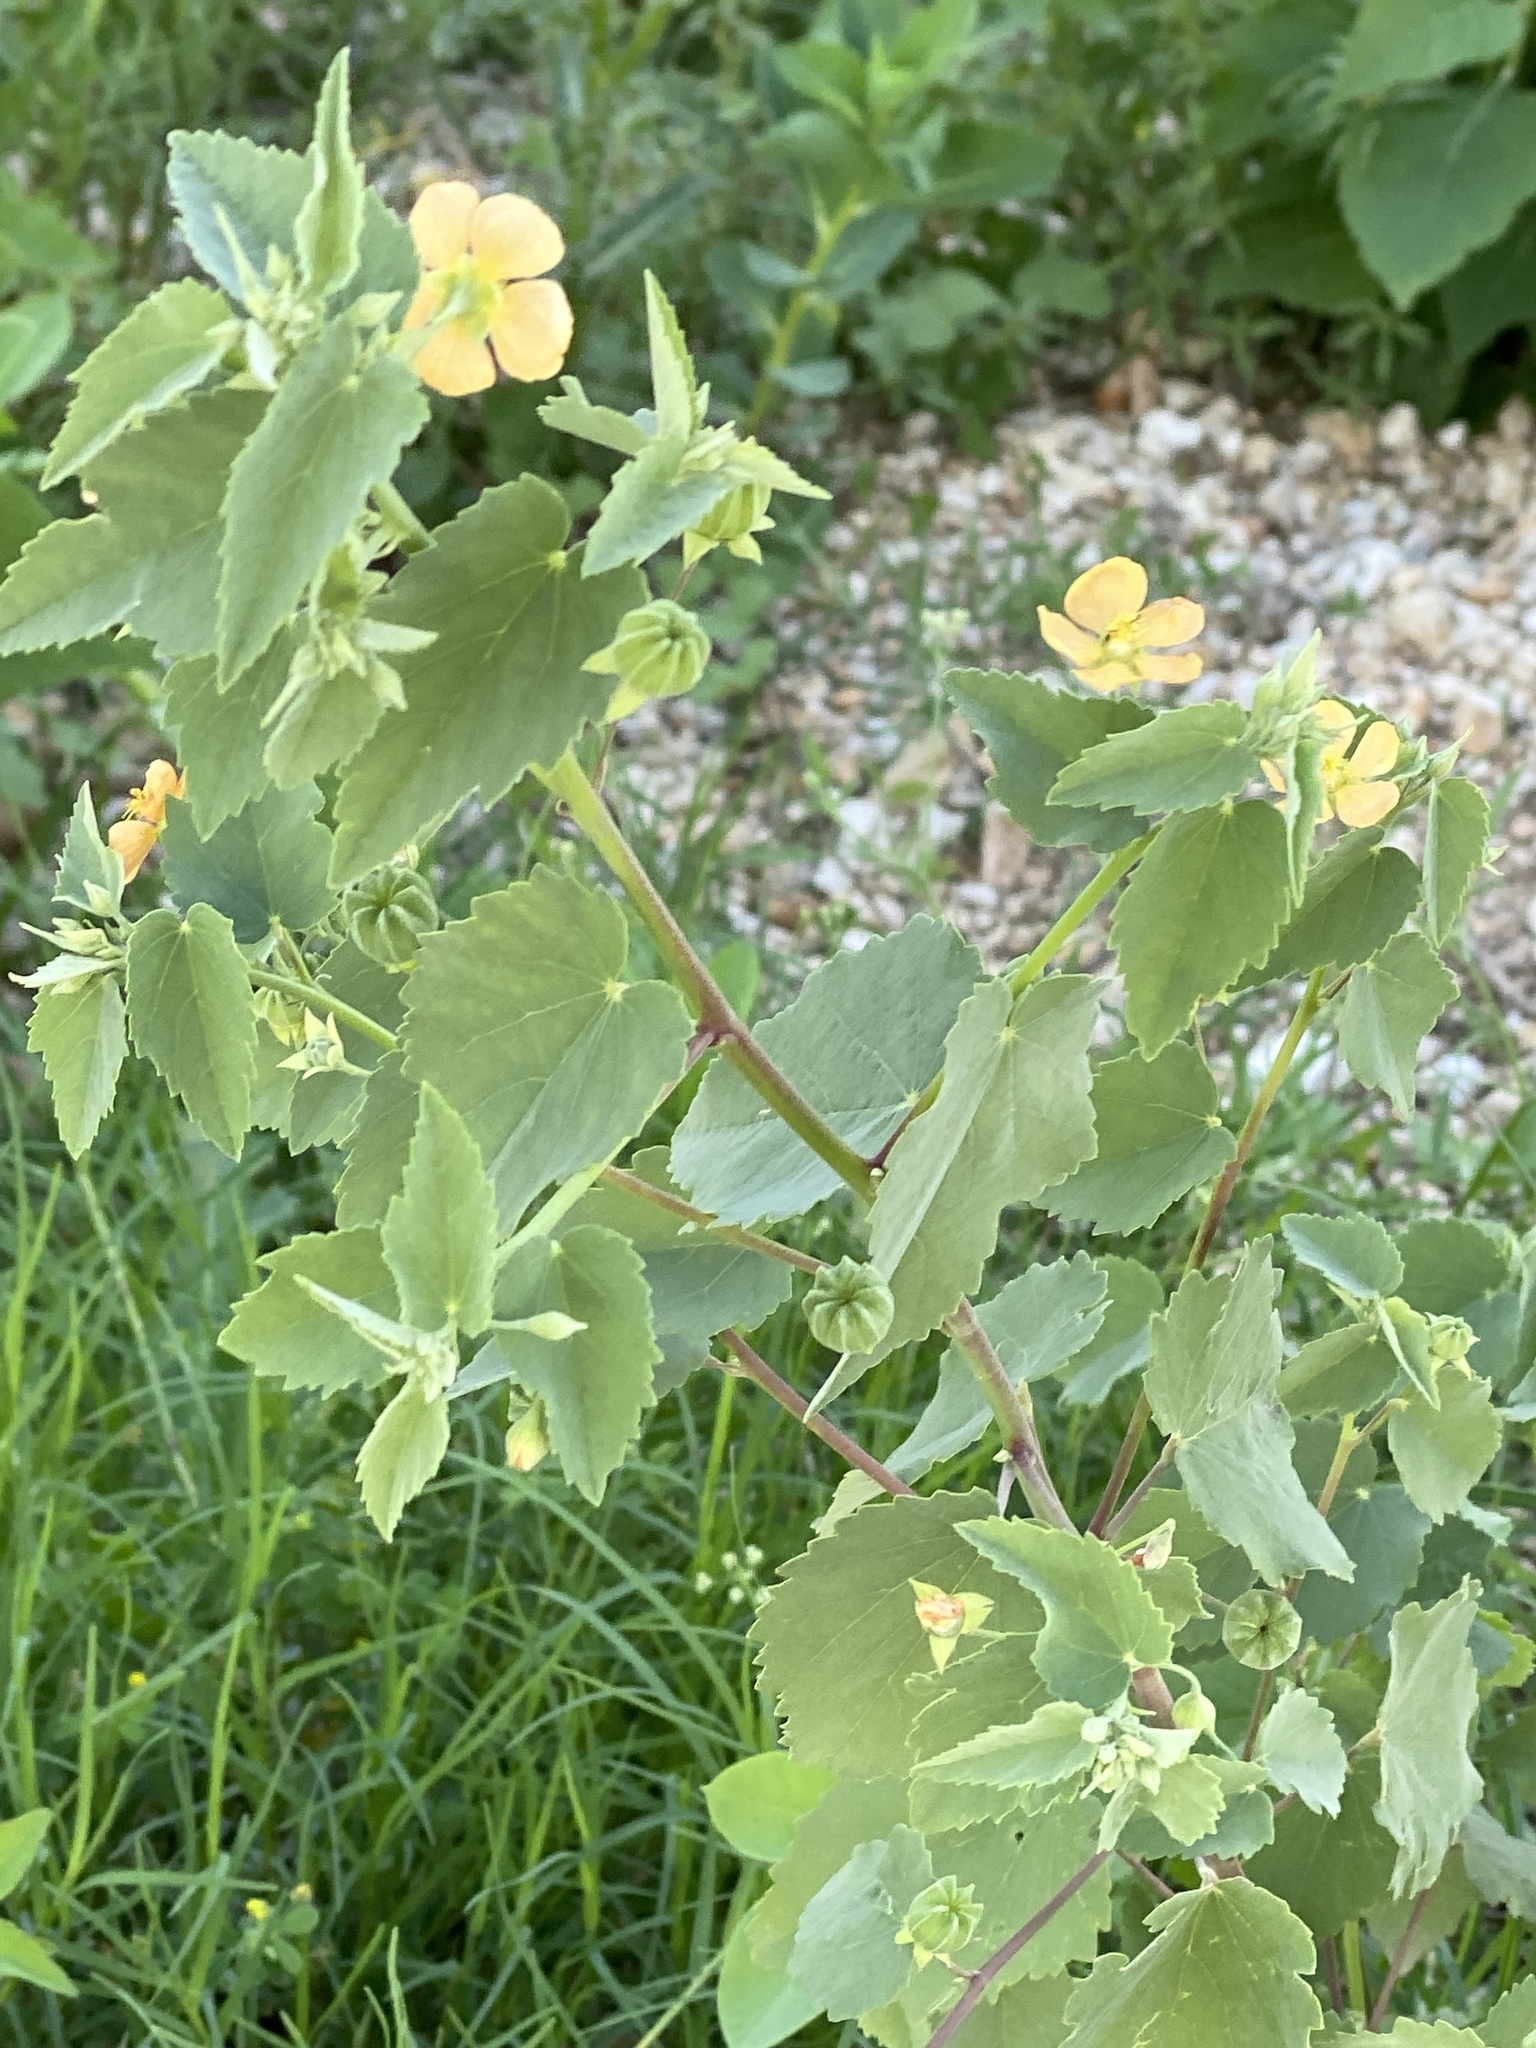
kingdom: Plantae
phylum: Tracheophyta
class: Magnoliopsida
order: Malvales
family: Malvaceae
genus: Abutilon
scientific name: Abutilon fruticosum
